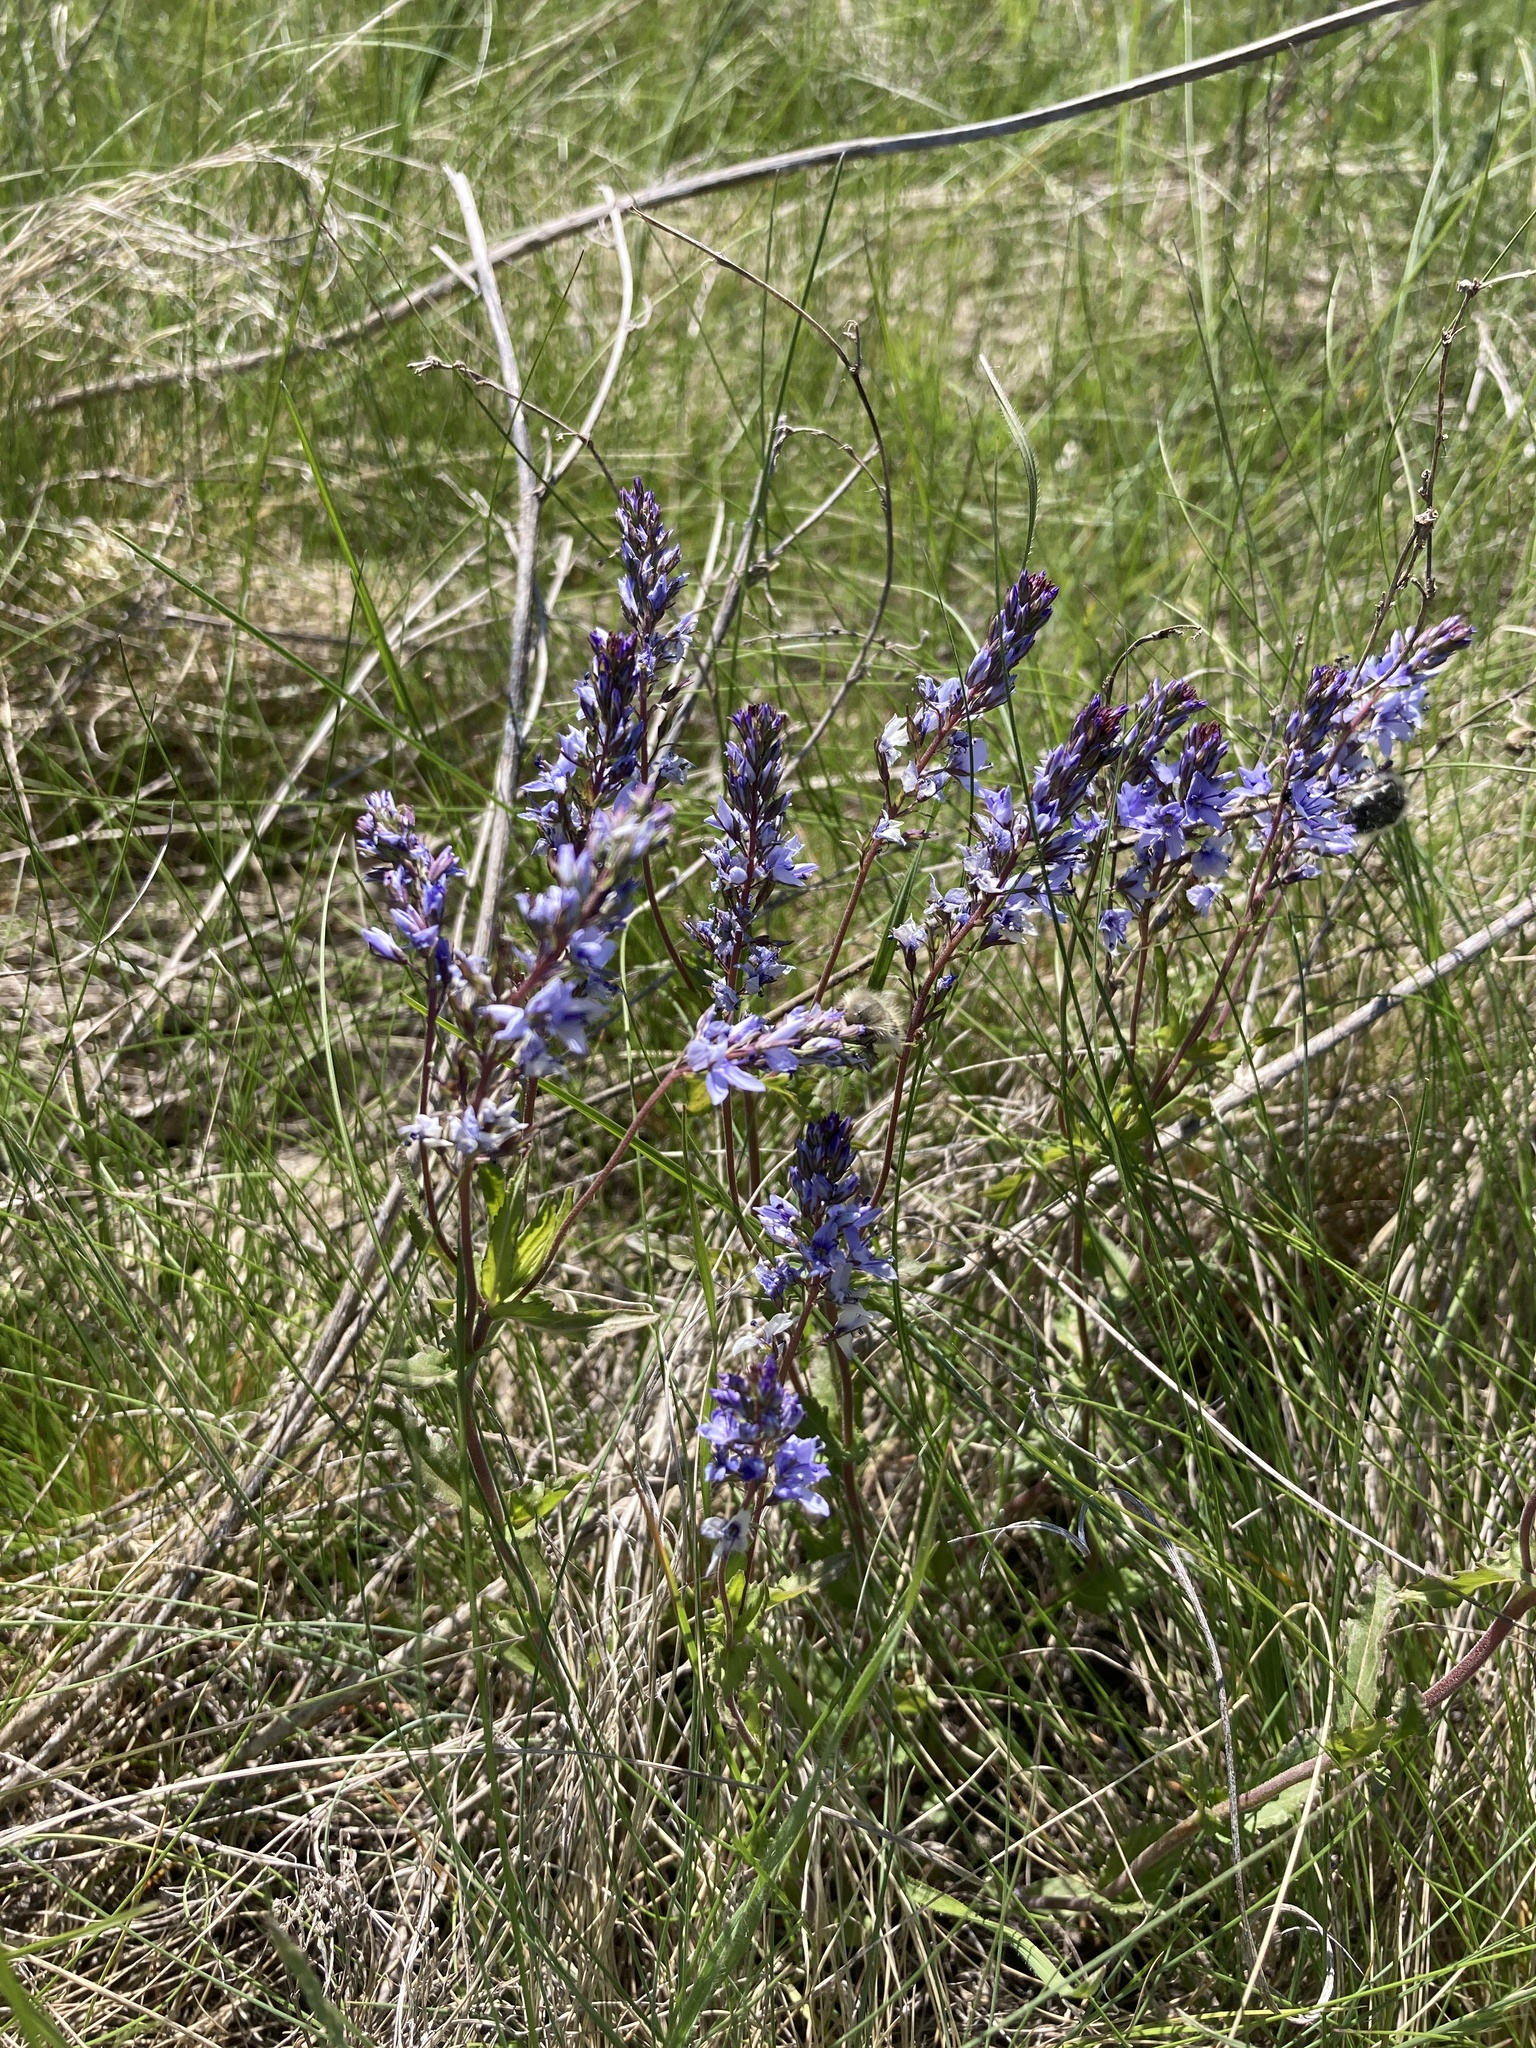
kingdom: Plantae
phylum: Tracheophyta
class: Magnoliopsida
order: Lamiales
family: Plantaginaceae
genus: Veronica
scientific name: Veronica prostrata
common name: Prostrate speedwell
